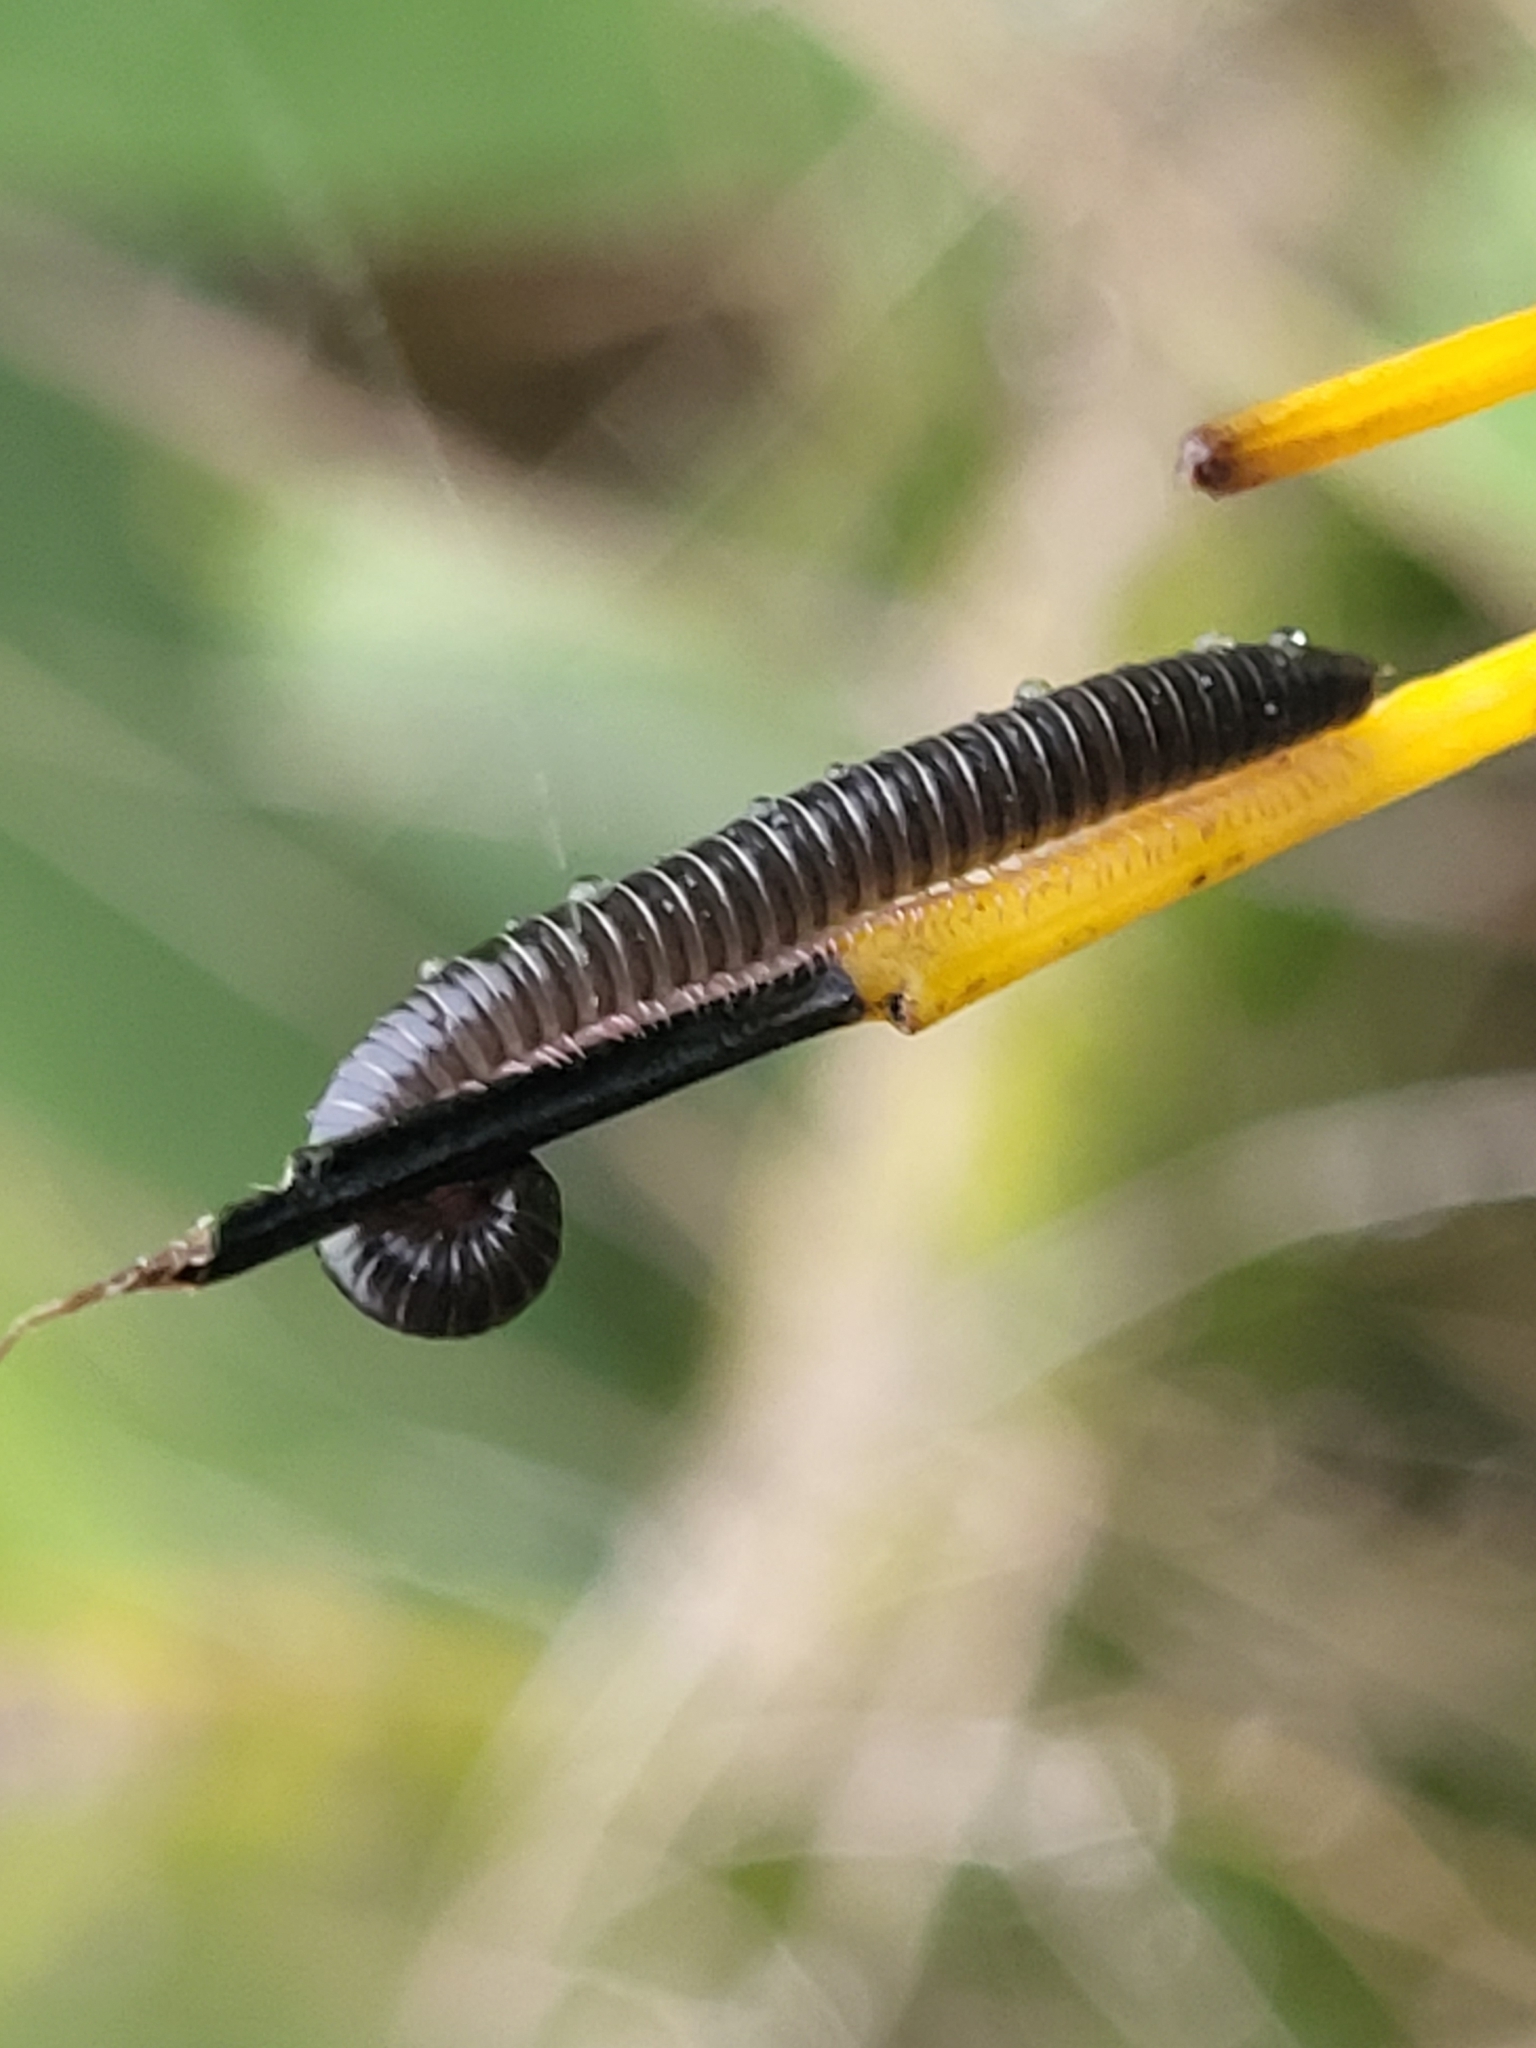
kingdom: Animalia
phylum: Arthropoda
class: Diplopoda
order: Julida
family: Julidae
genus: Ommatoiulus
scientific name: Ommatoiulus moreleti
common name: Portuguese millipede
